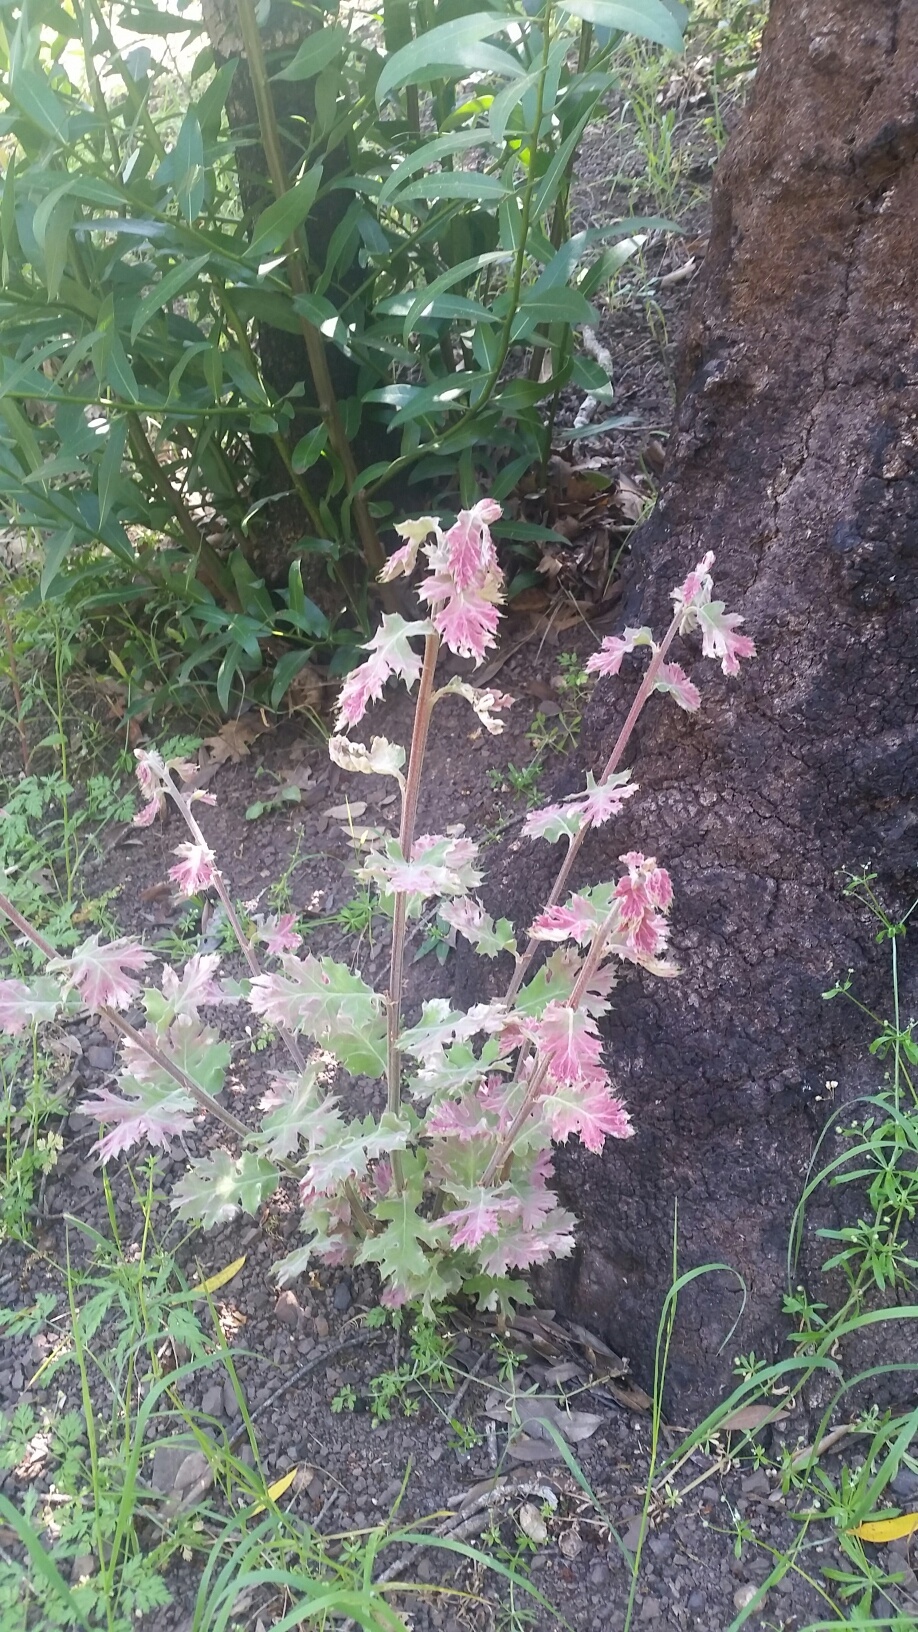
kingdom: Plantae
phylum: Tracheophyta
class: Magnoliopsida
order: Fagales
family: Fagaceae
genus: Quercus
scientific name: Quercus kelloggii
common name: California black oak
